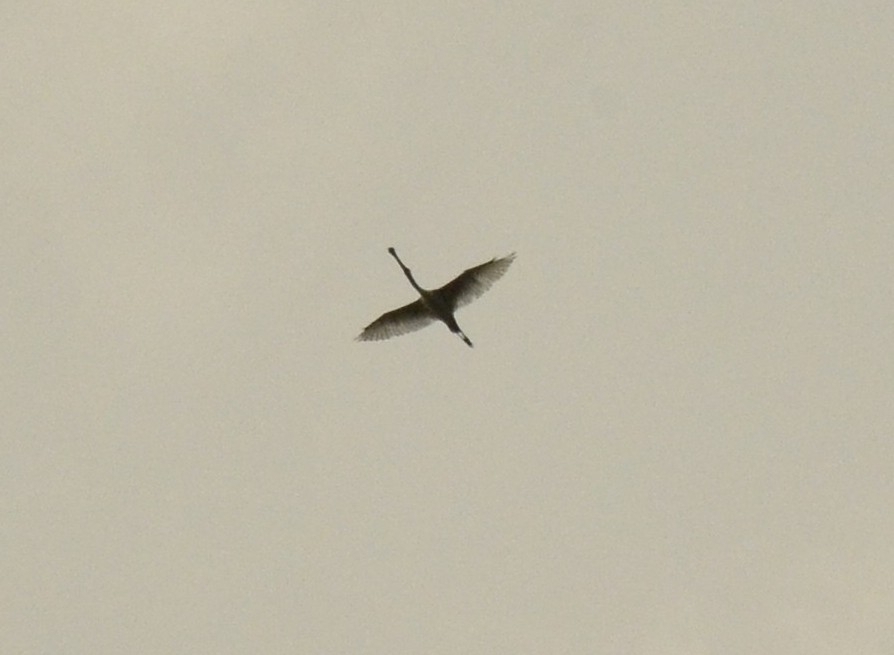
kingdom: Animalia
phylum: Chordata
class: Aves
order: Pelecaniformes
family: Threskiornithidae
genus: Platalea
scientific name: Platalea leucorodia
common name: Eurasian spoonbill
